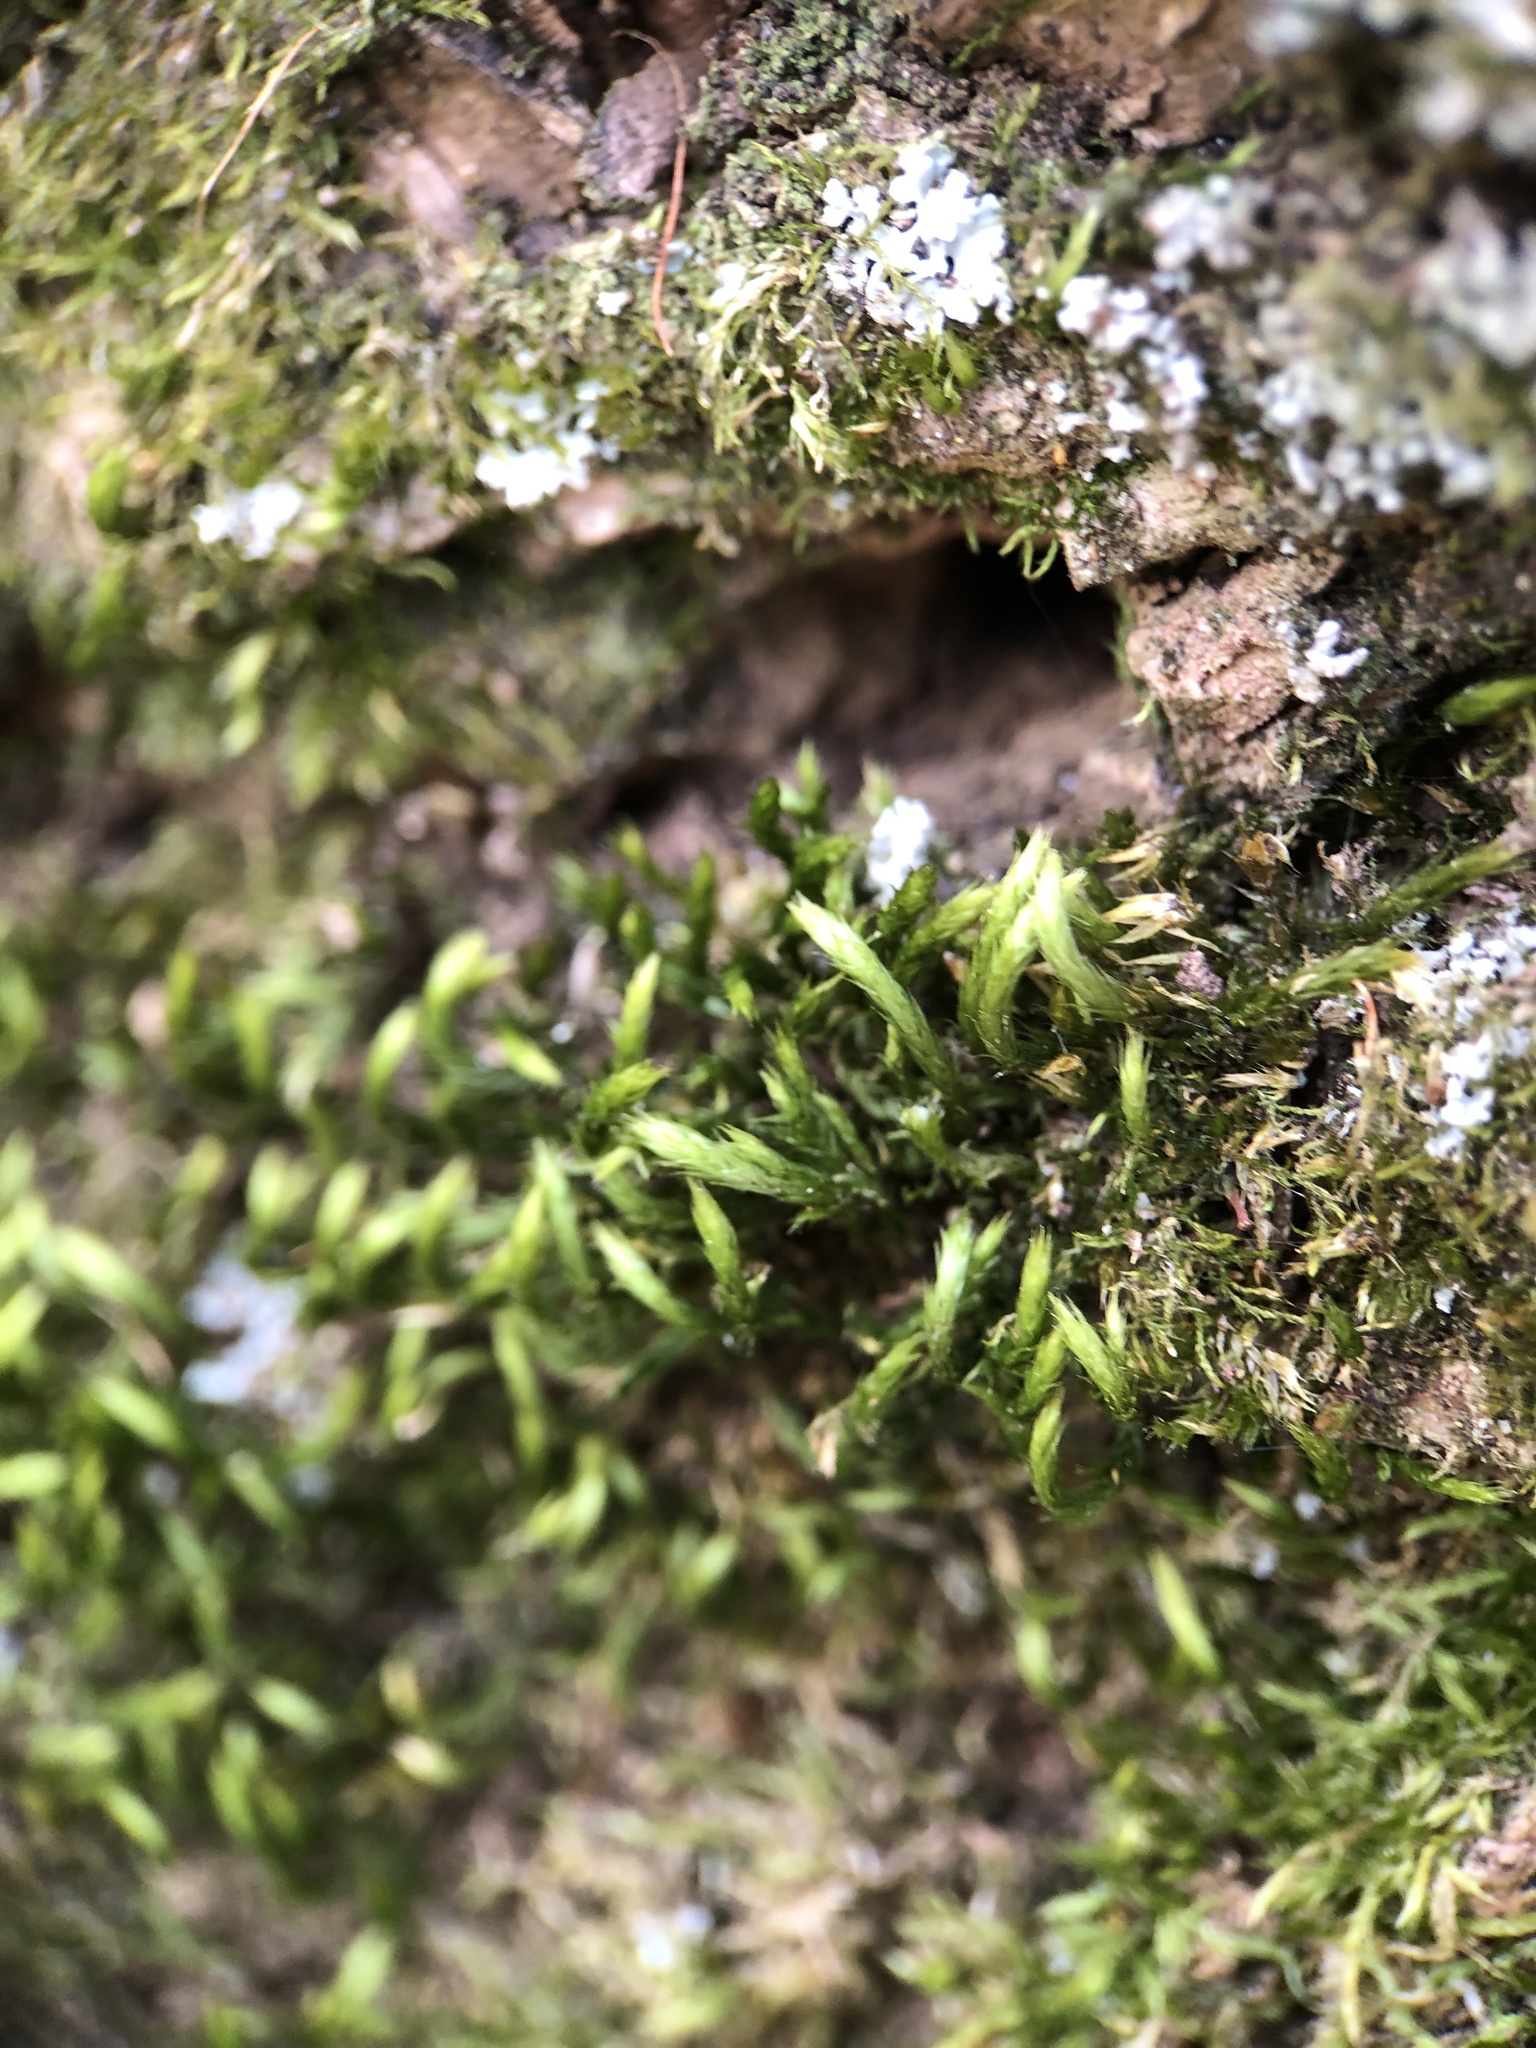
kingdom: Plantae
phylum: Bryophyta
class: Bryopsida
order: Hypnales
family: Leucodontaceae
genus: Leucodon
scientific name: Leucodon sciuroides
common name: Squirrel-tail moss
